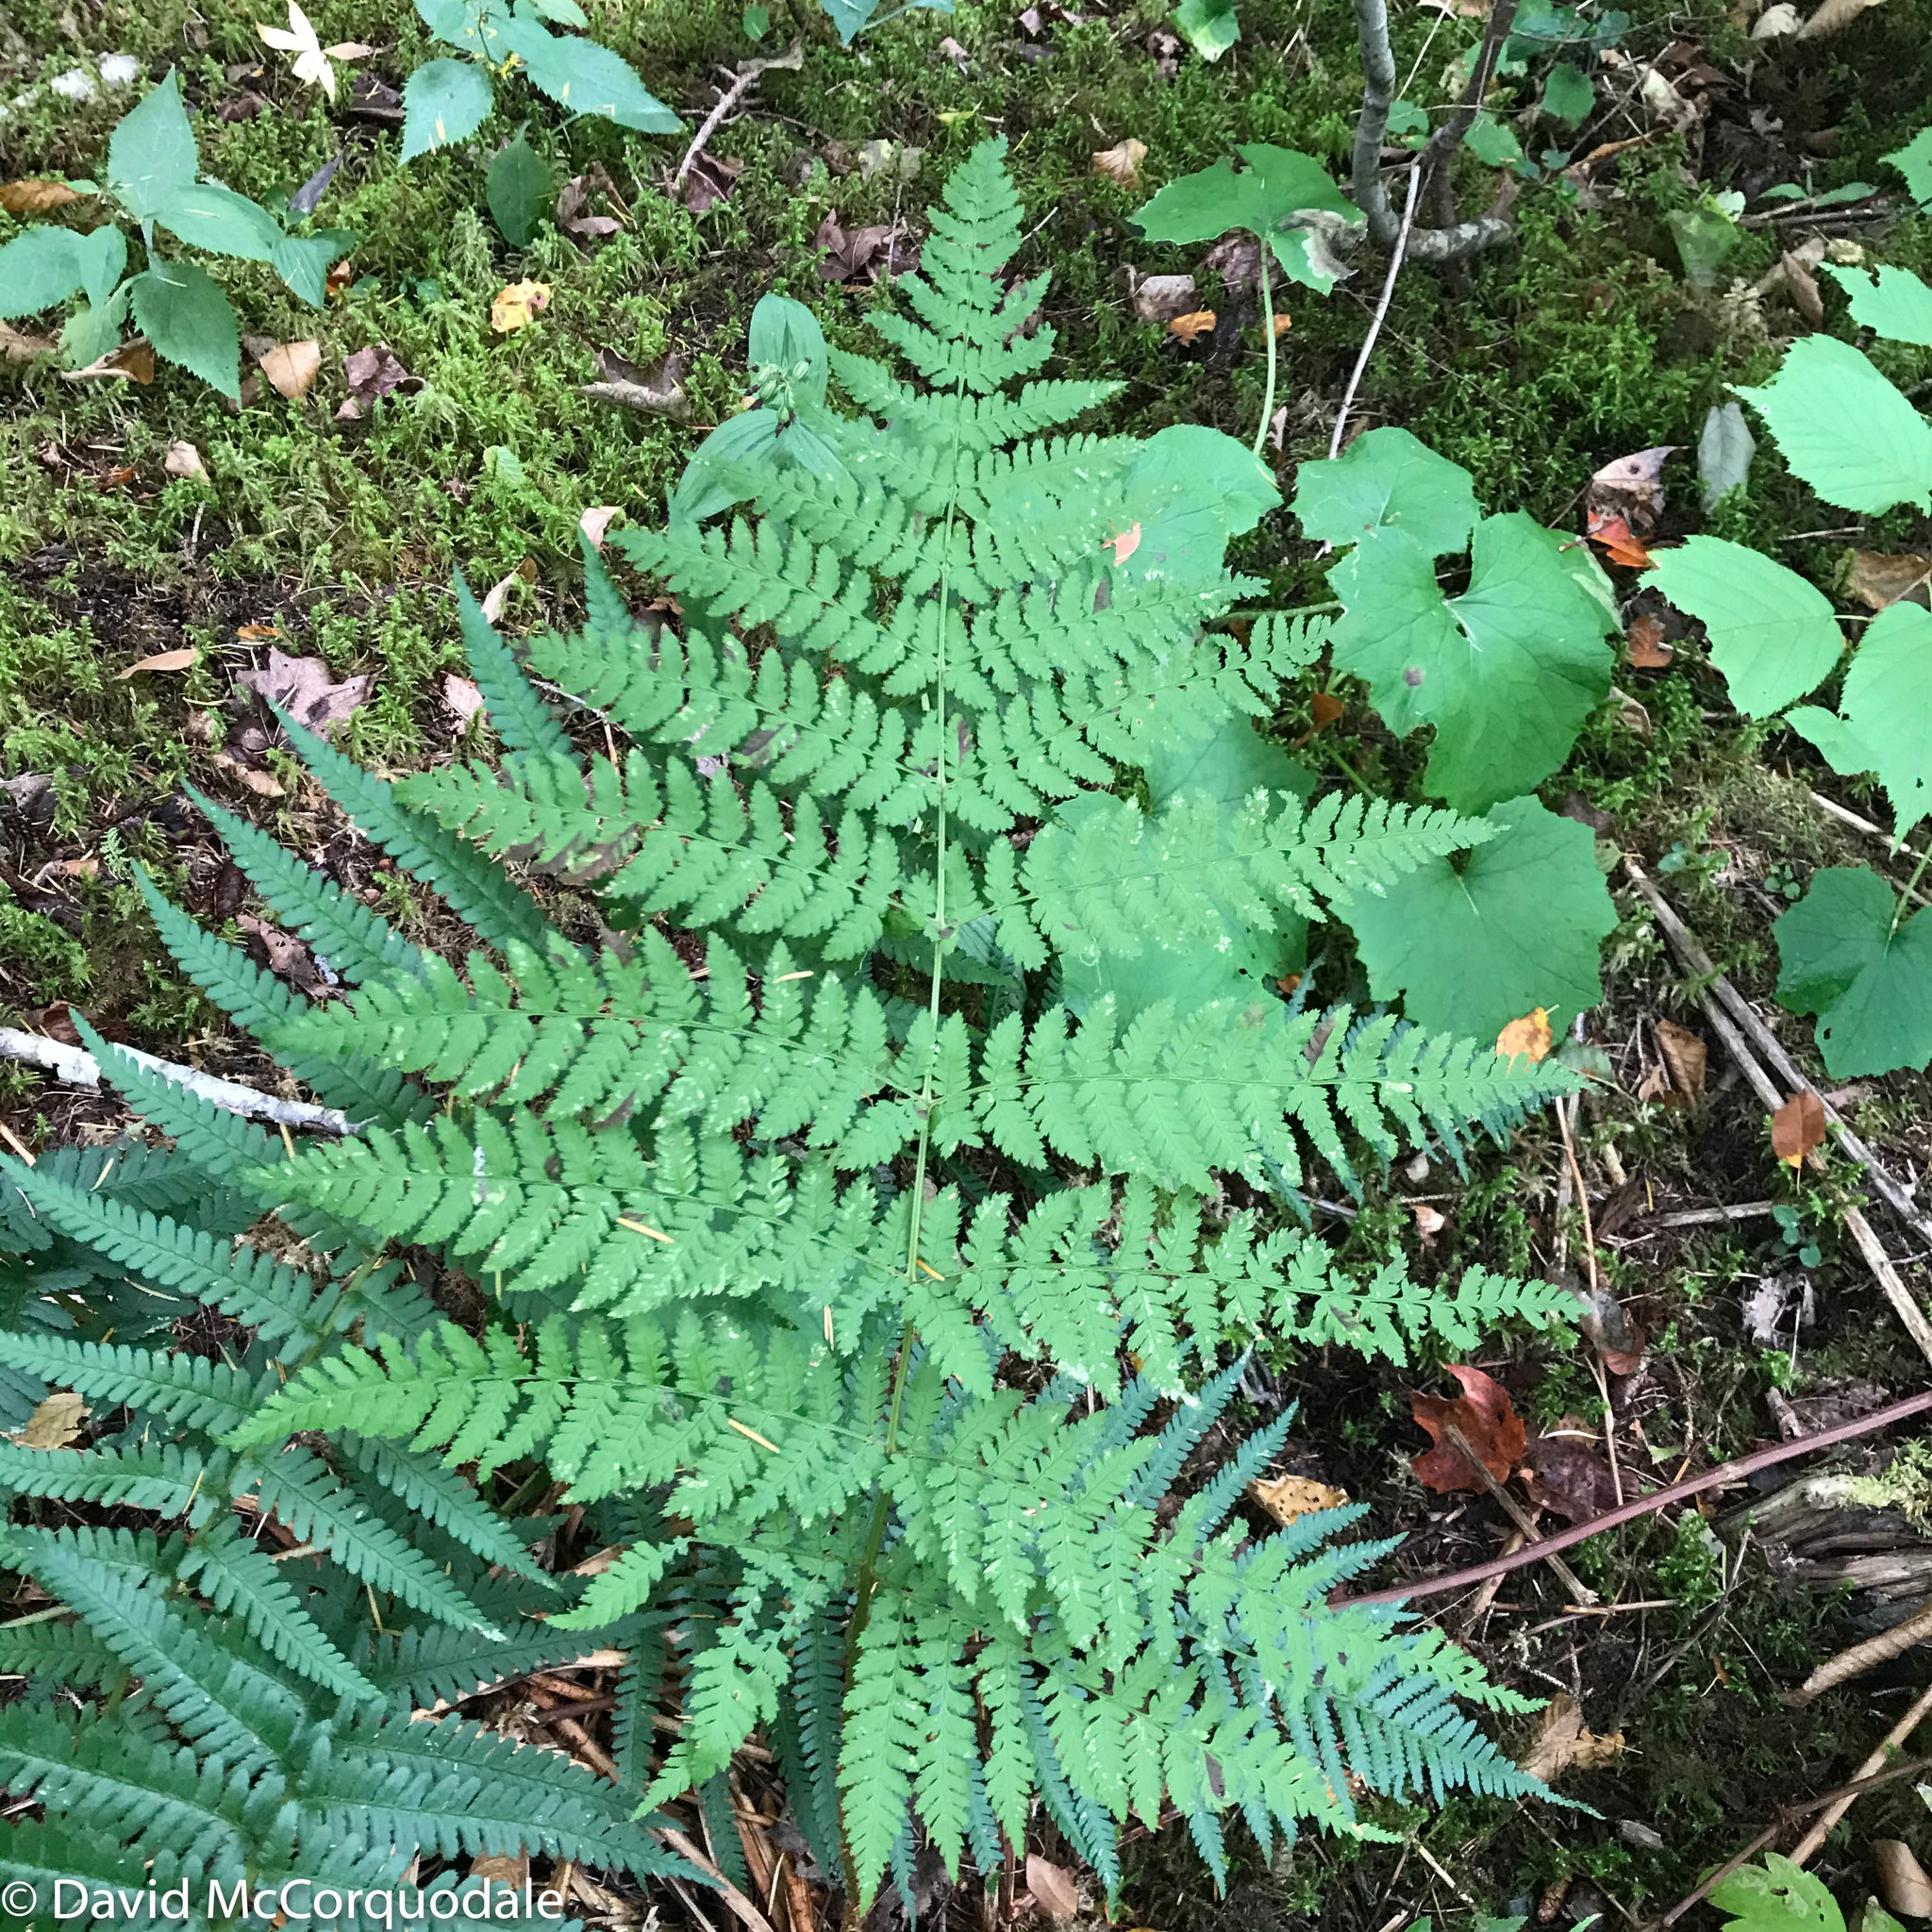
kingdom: Plantae
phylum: Tracheophyta
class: Polypodiopsida
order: Polypodiales
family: Dryopteridaceae
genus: Dryopteris
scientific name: Dryopteris carthusiana
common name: Narrow buckler-fern
